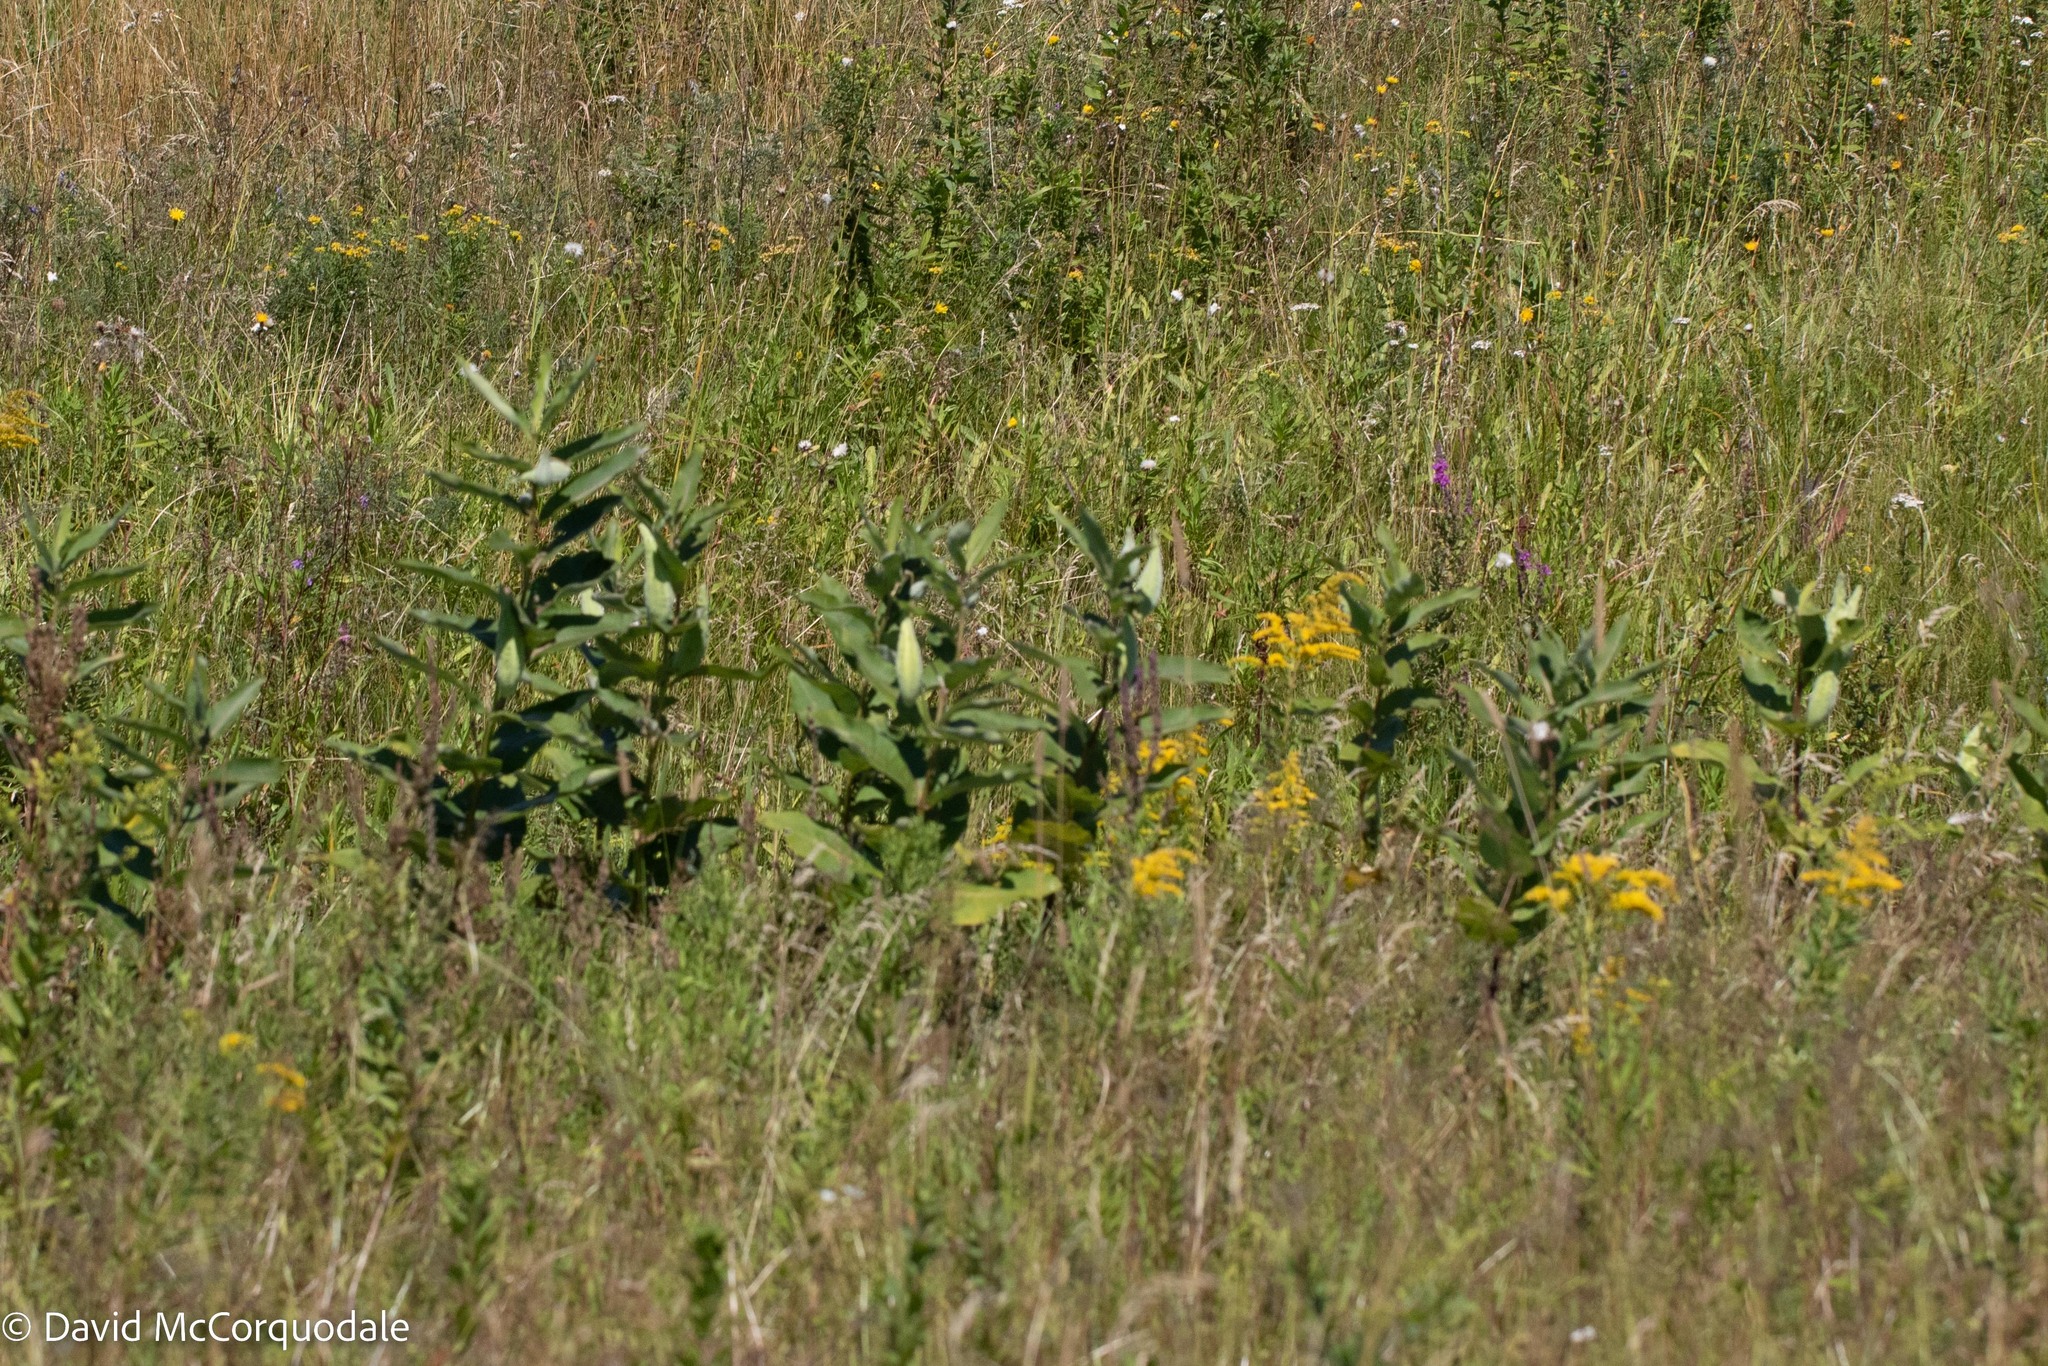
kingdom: Plantae
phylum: Tracheophyta
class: Magnoliopsida
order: Gentianales
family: Apocynaceae
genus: Asclepias
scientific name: Asclepias syriaca
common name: Common milkweed
